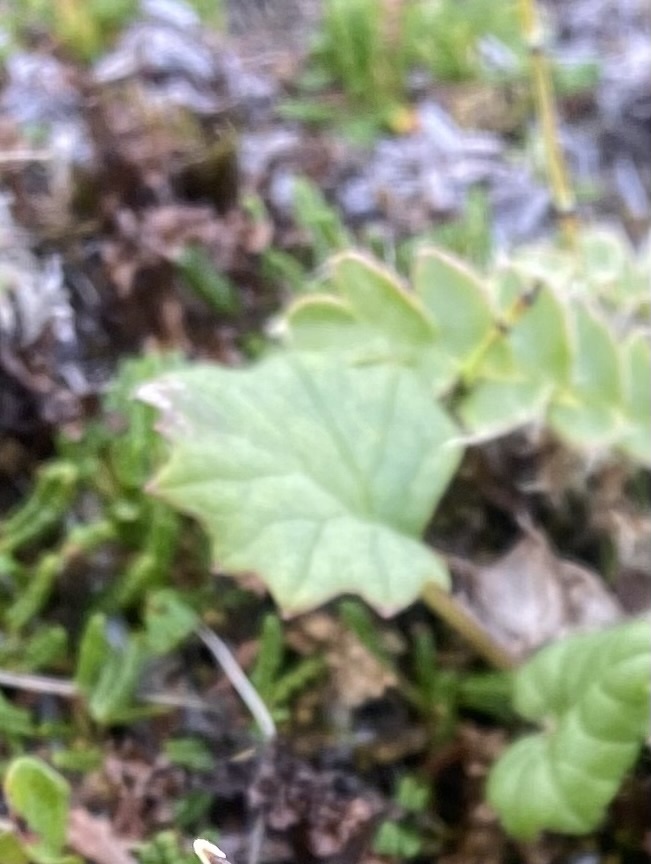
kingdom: Plantae
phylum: Tracheophyta
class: Magnoliopsida
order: Asterales
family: Asteraceae
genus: Endocellion
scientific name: Endocellion glaciale
